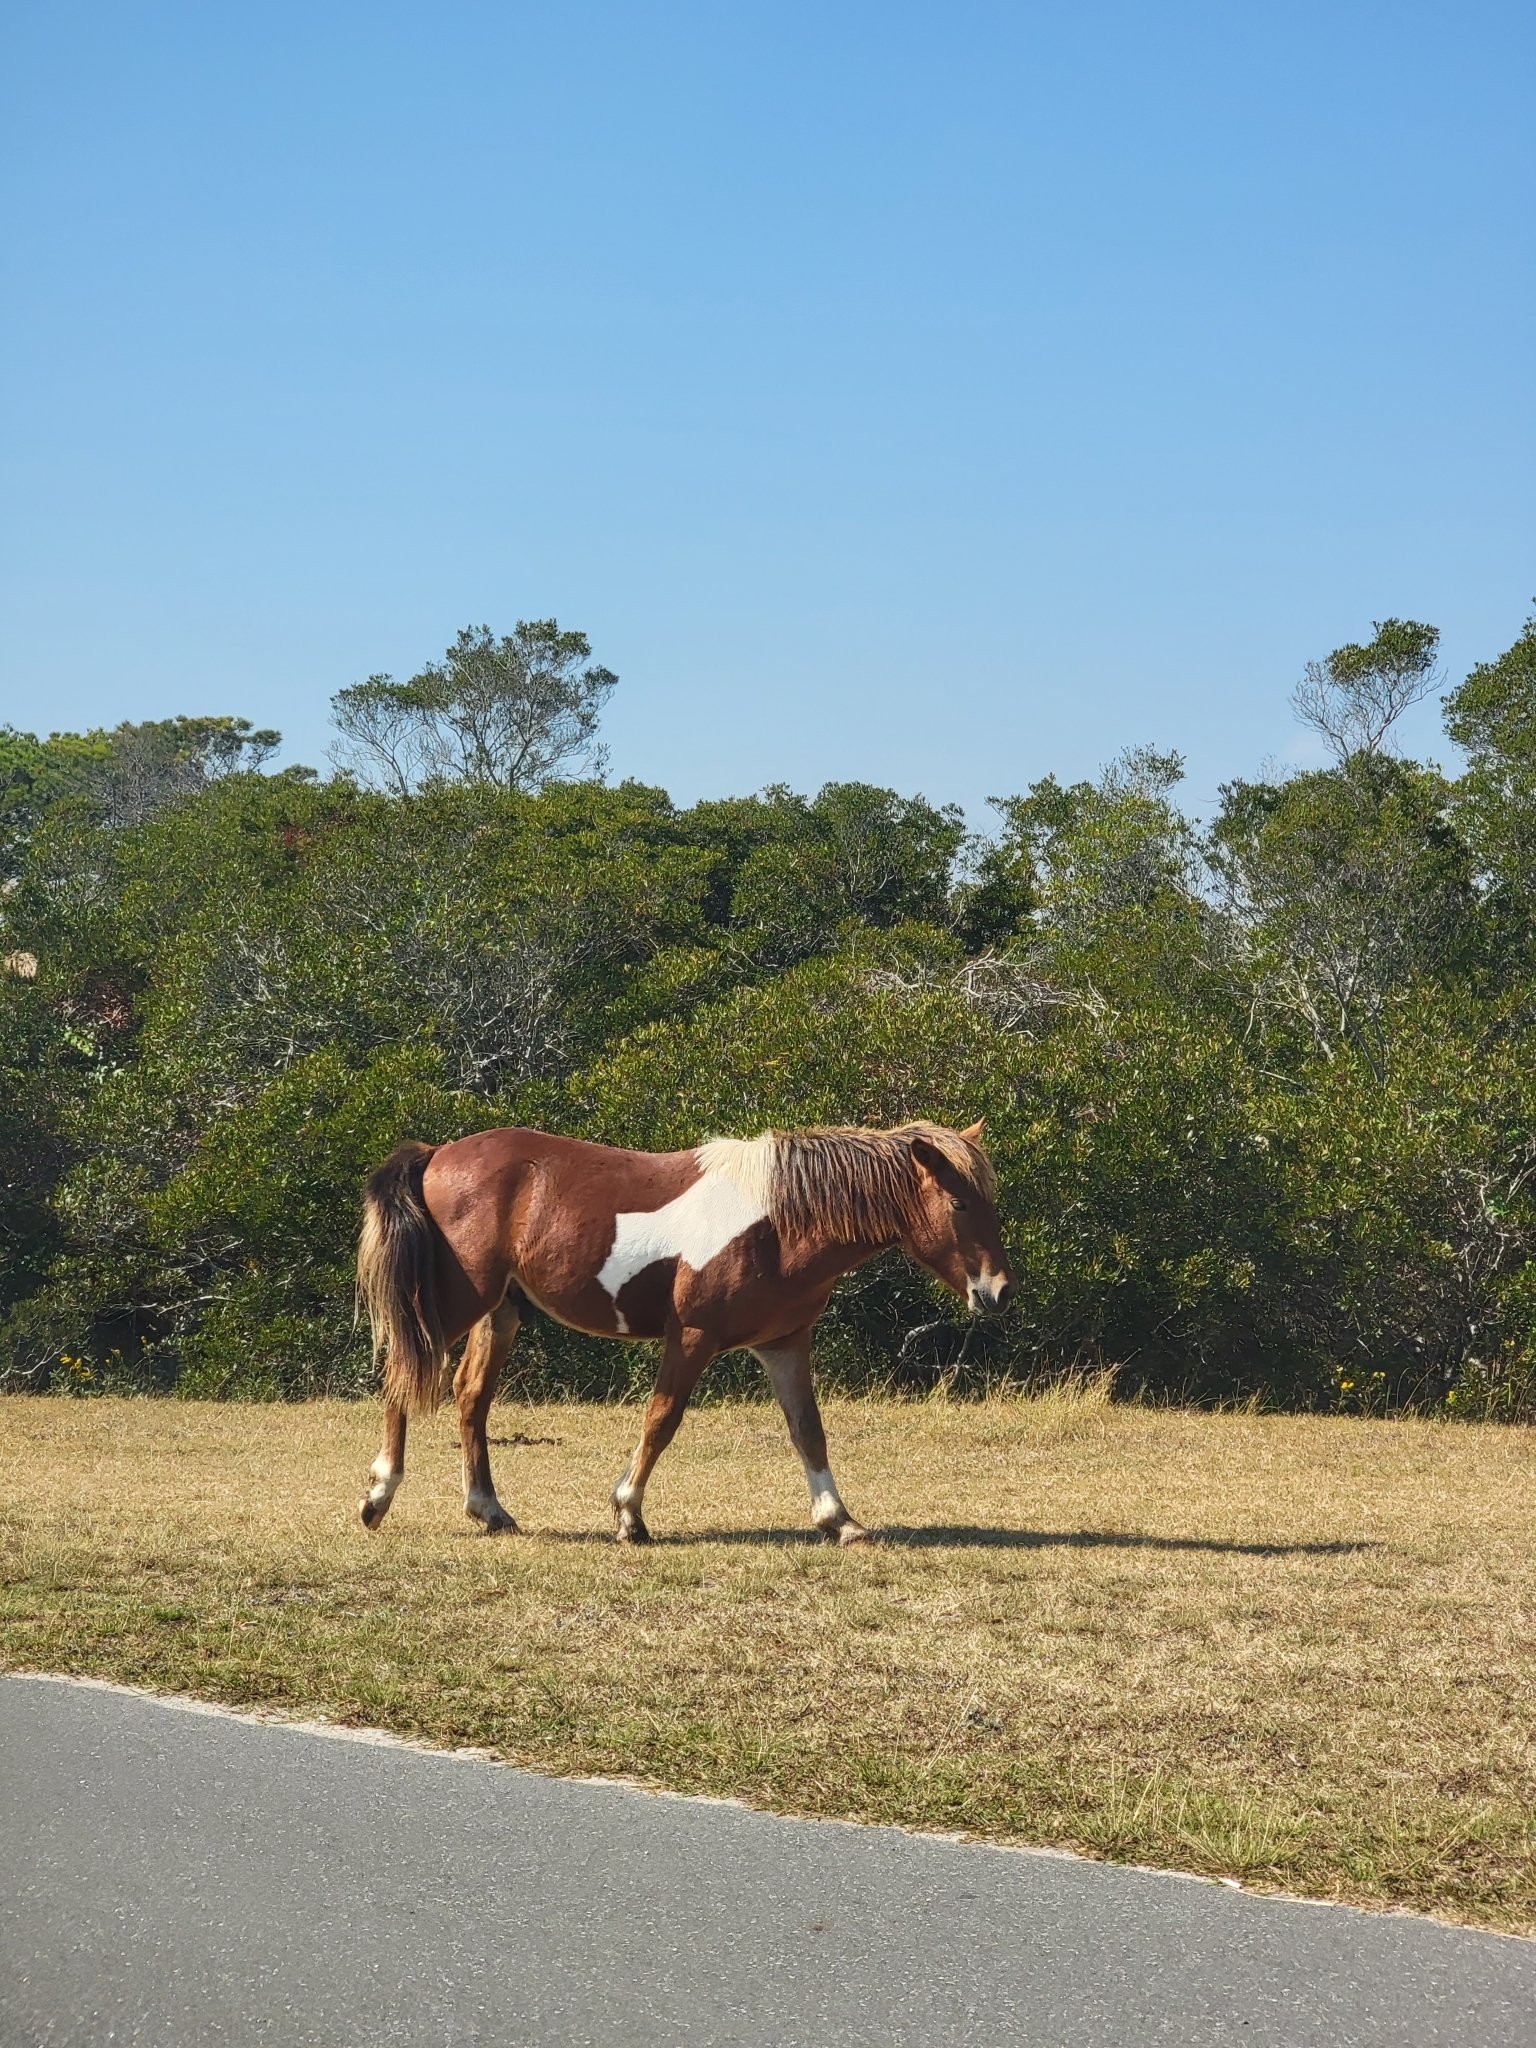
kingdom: Animalia
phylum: Chordata
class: Mammalia
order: Perissodactyla
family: Equidae
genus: Equus
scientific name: Equus caballus
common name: Horse
